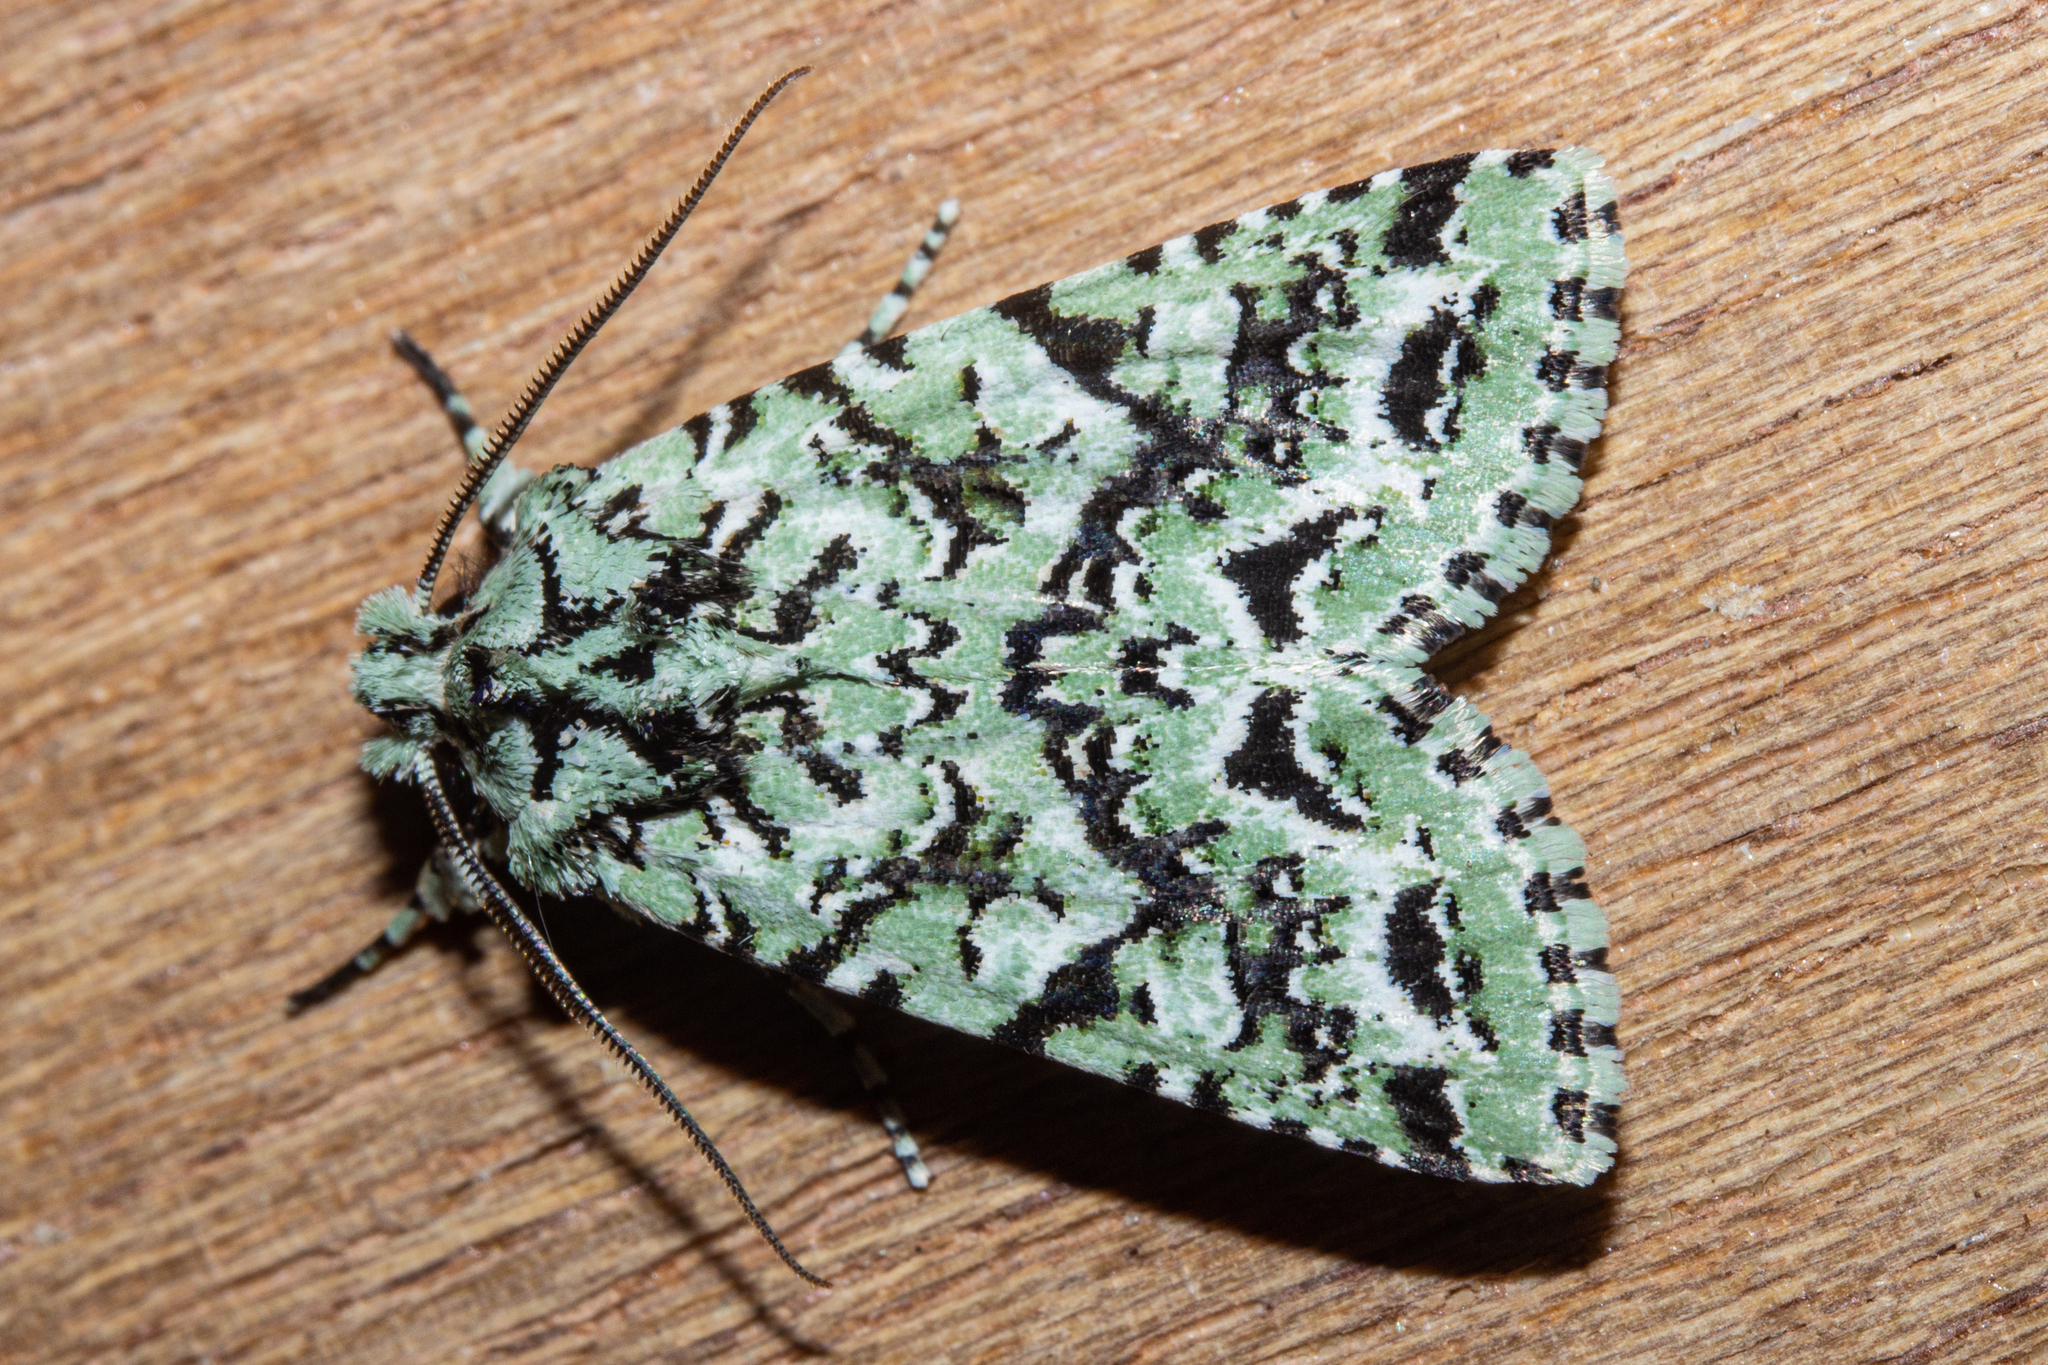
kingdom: Animalia
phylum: Arthropoda
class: Insecta
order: Lepidoptera
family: Noctuidae
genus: Meterana
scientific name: Meterana
